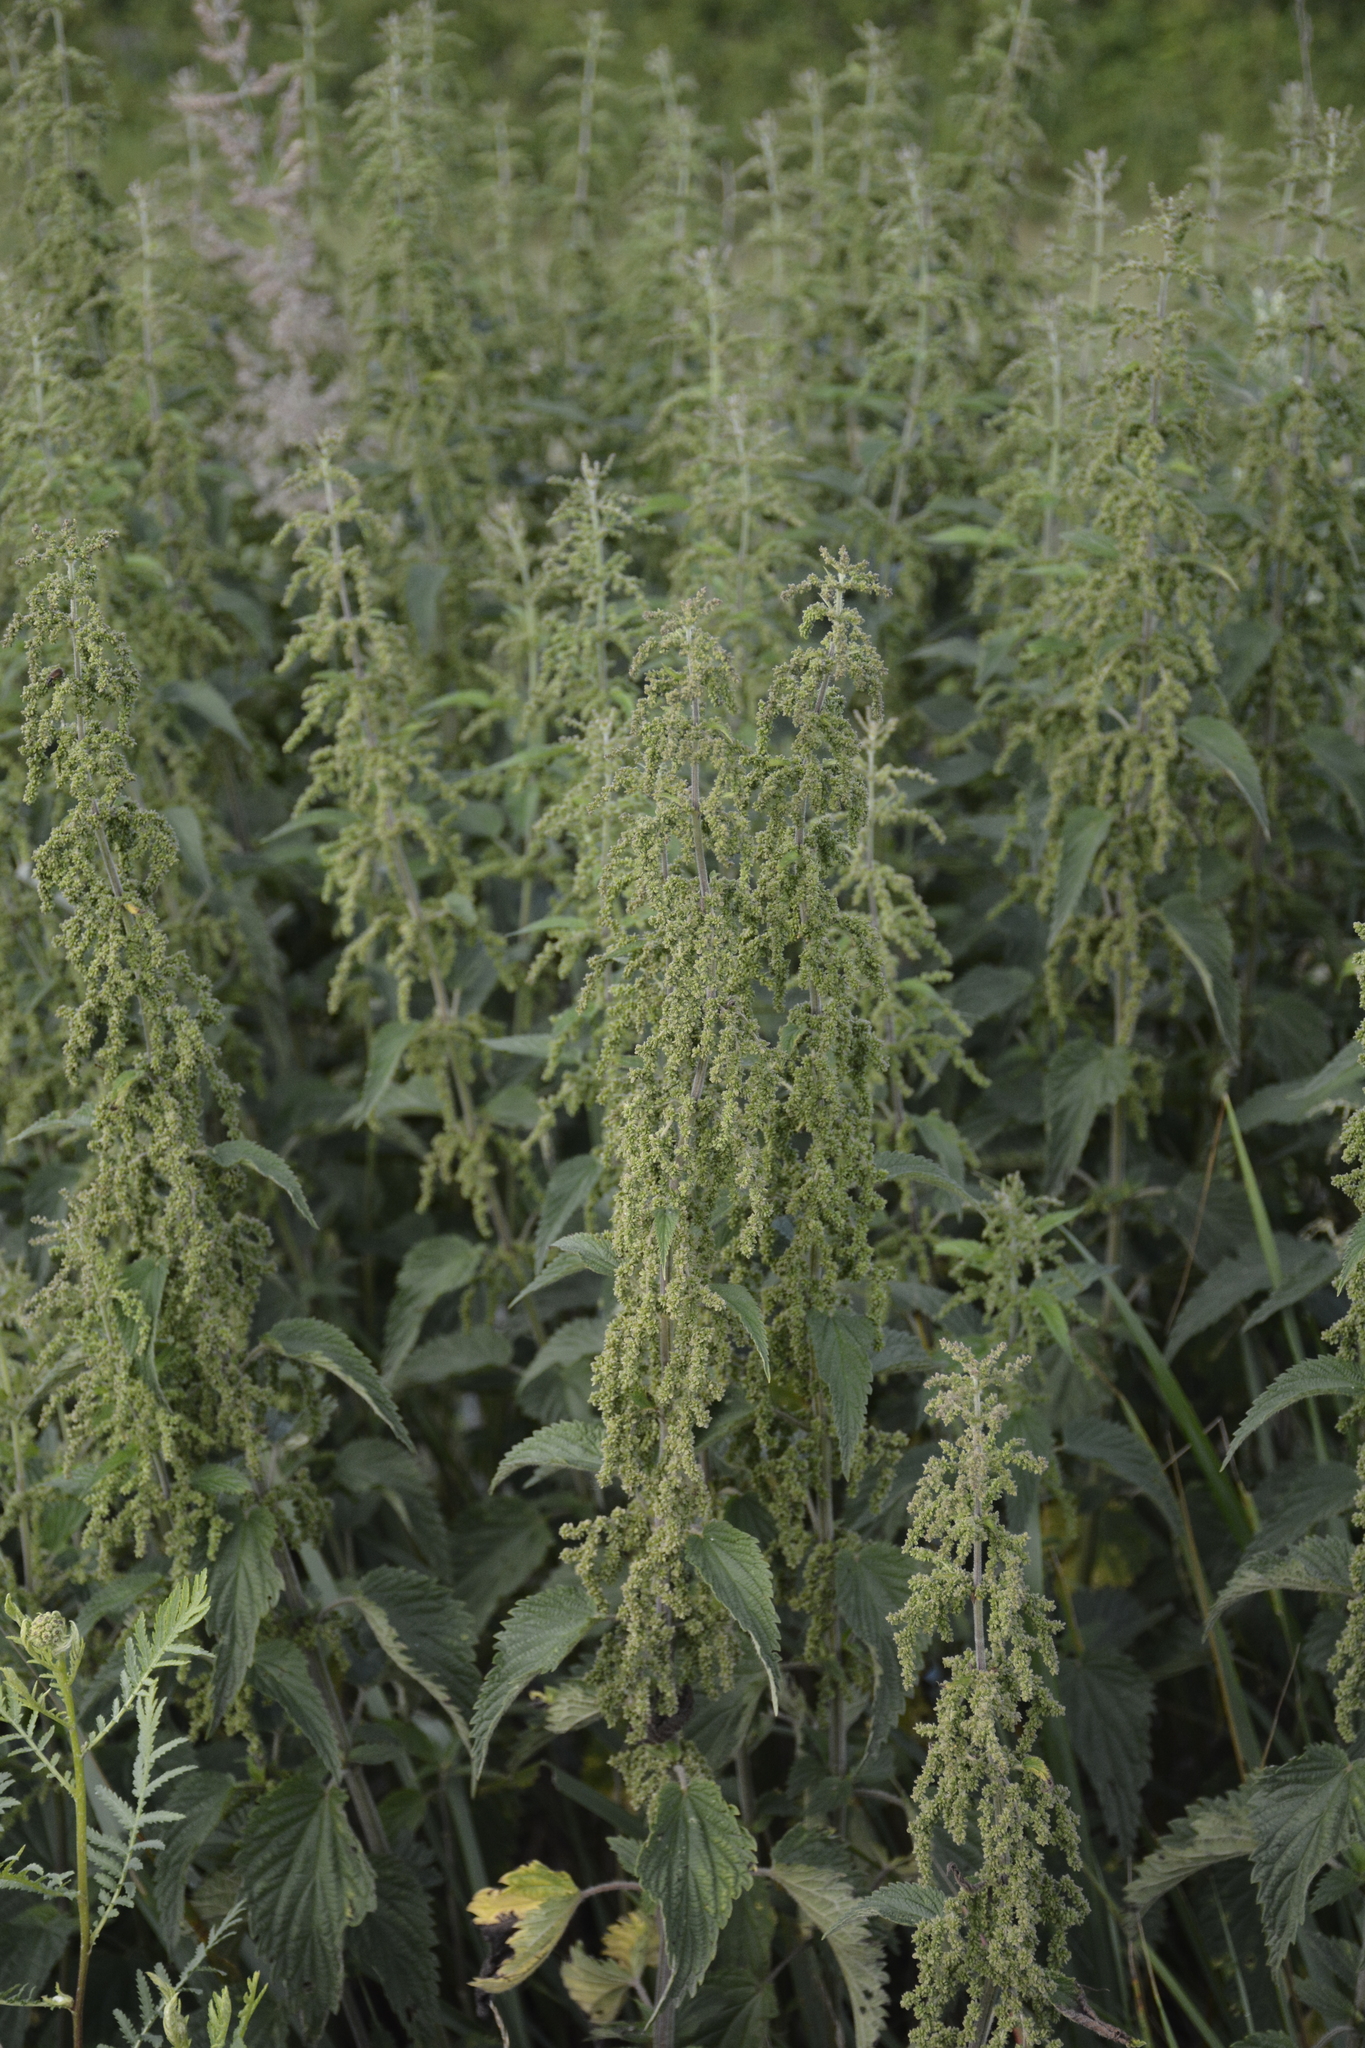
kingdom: Plantae
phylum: Tracheophyta
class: Magnoliopsida
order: Rosales
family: Urticaceae
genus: Urtica
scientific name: Urtica dioica
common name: Common nettle
